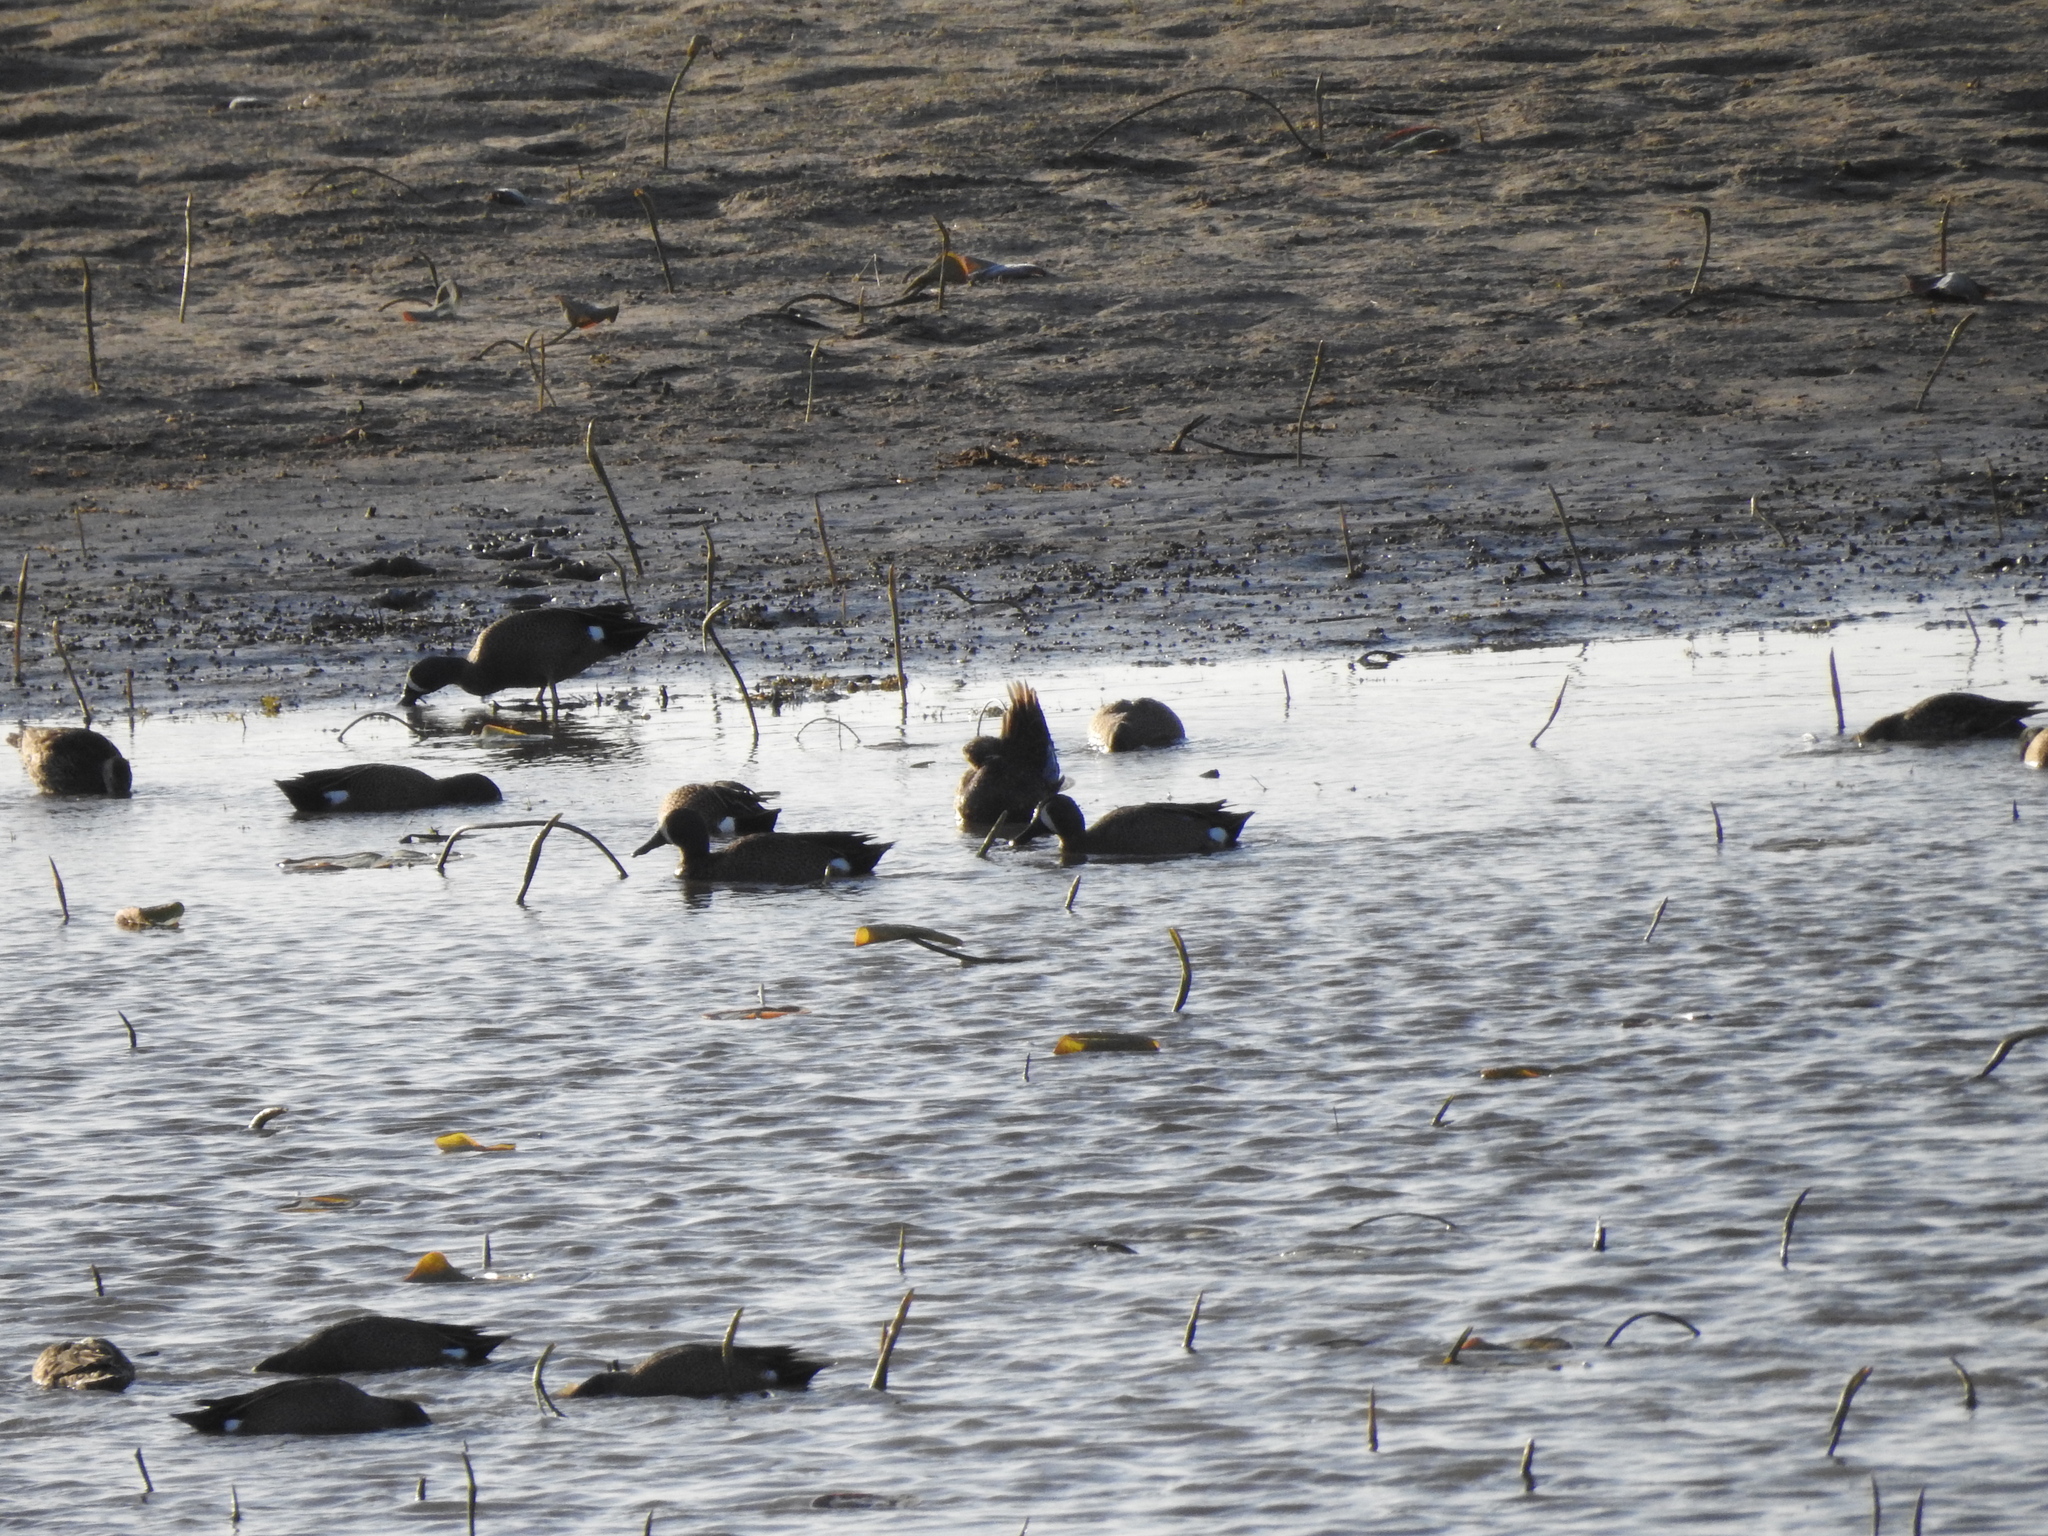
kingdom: Animalia
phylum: Chordata
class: Aves
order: Anseriformes
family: Anatidae
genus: Spatula
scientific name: Spatula discors
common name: Blue-winged teal
